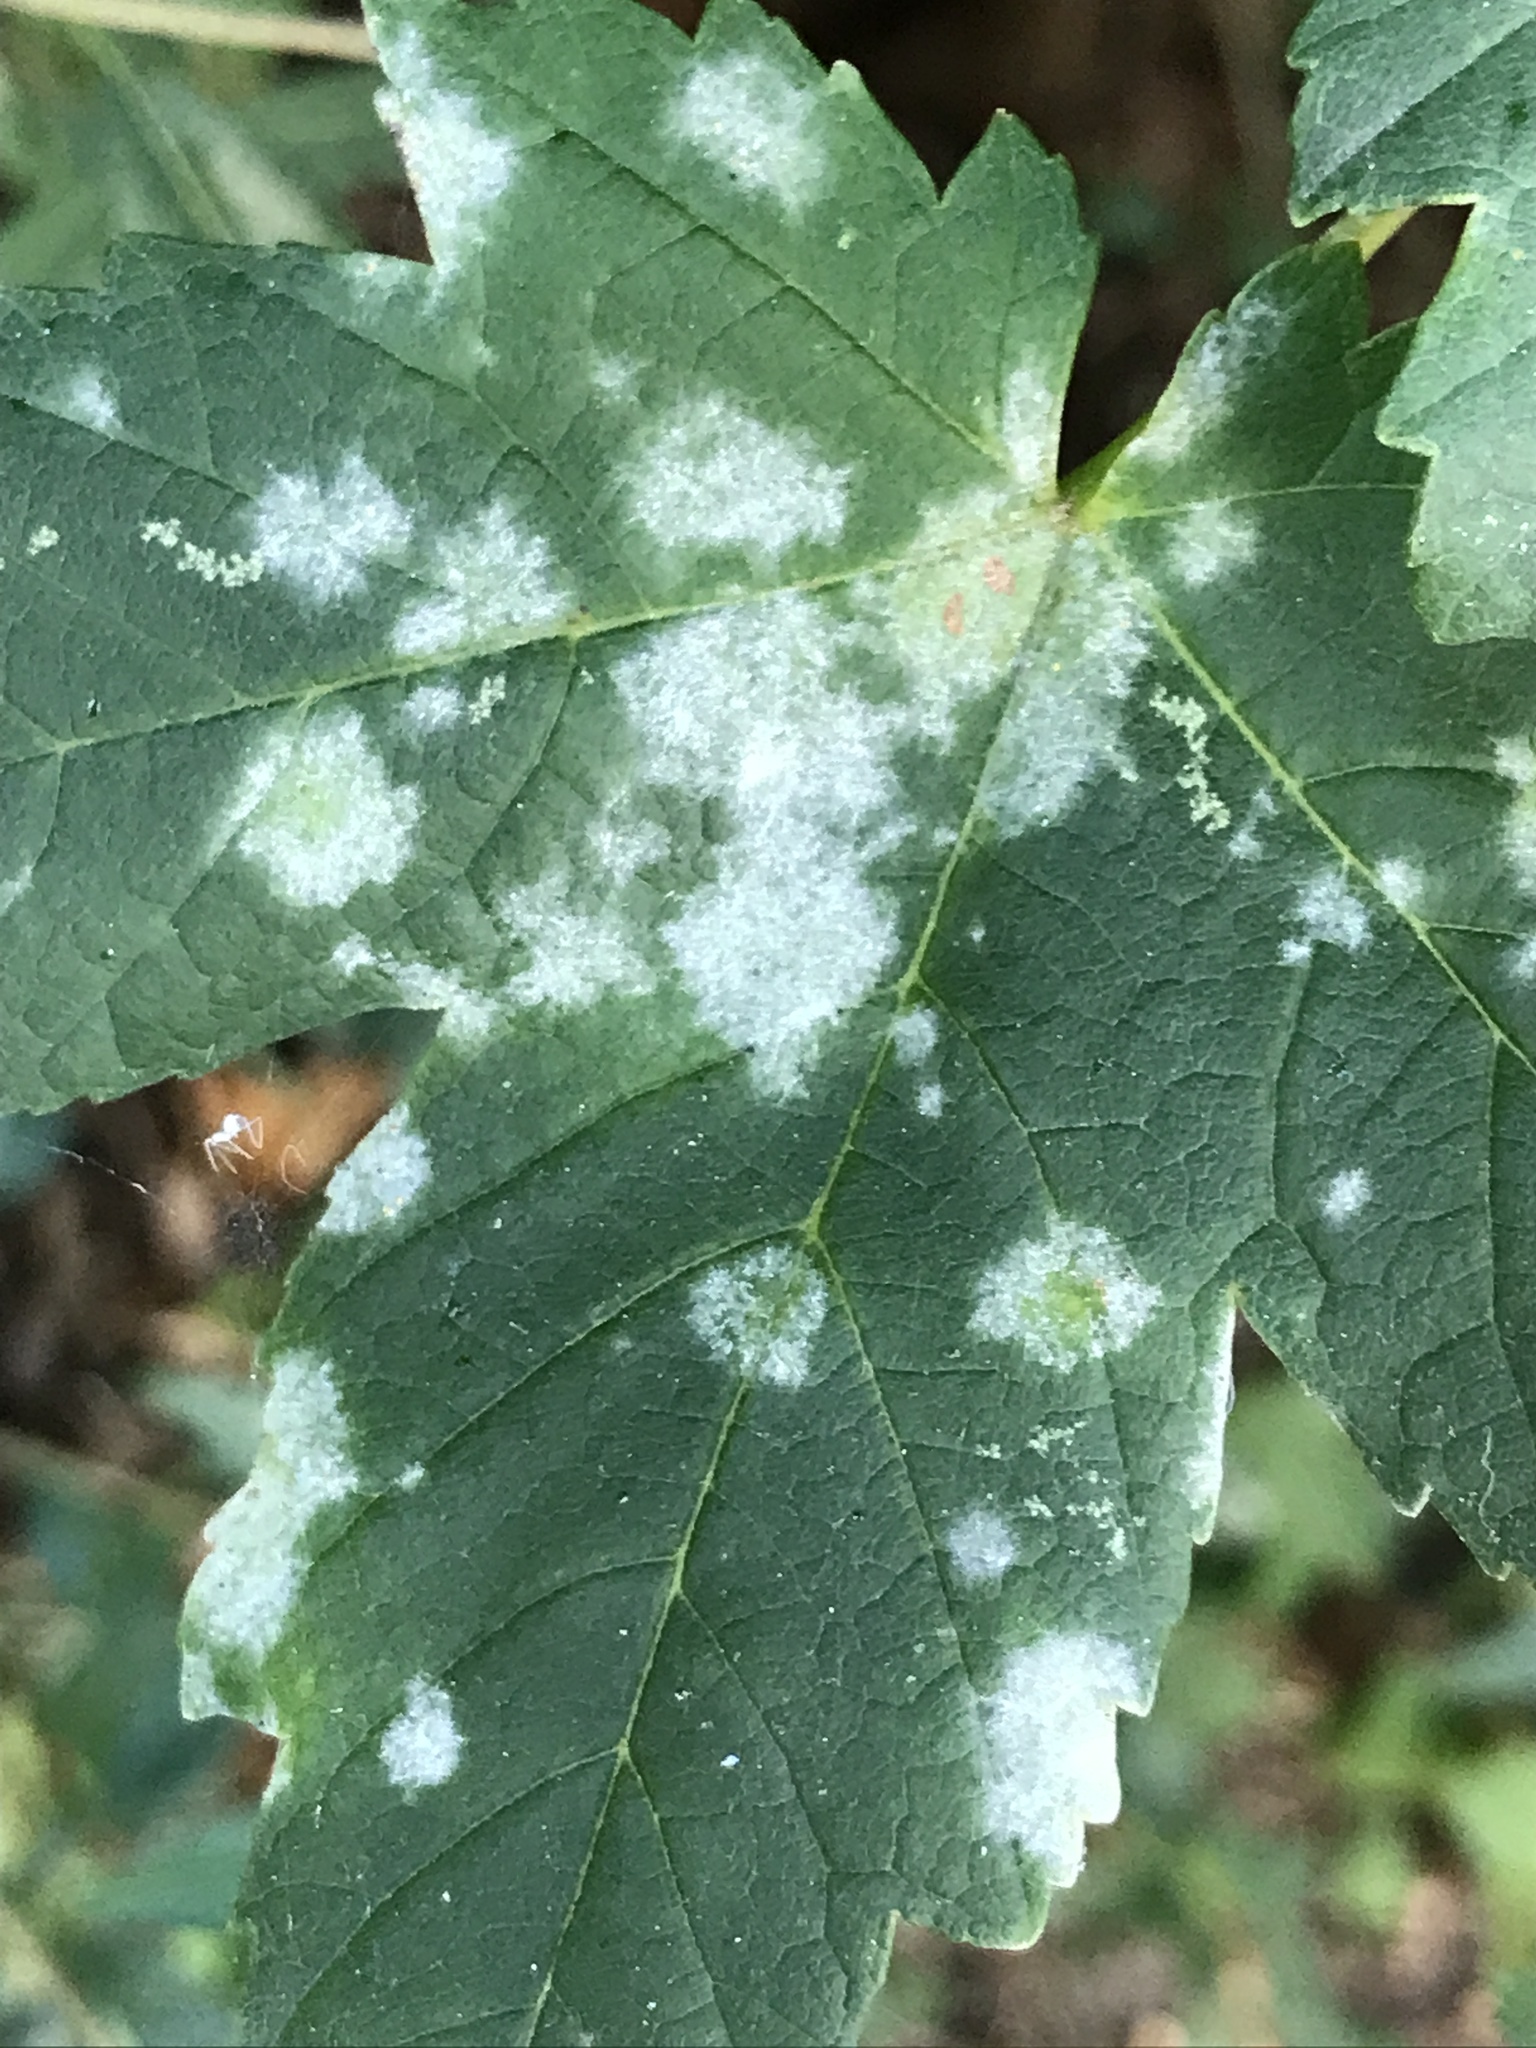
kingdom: Fungi
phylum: Ascomycota
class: Leotiomycetes
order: Helotiales
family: Erysiphaceae
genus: Sawadaea
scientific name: Sawadaea bicornis
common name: Maple mildew
